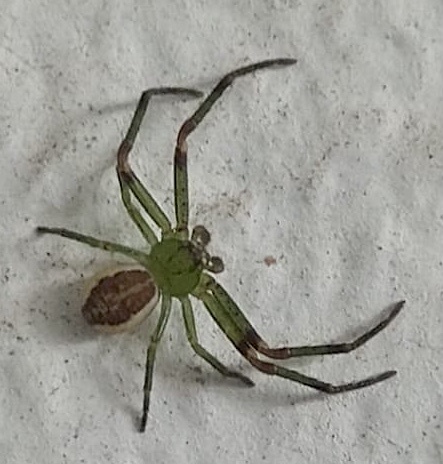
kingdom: Animalia
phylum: Arthropoda
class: Arachnida
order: Araneae
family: Thomisidae
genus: Diaea
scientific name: Diaea dorsata
